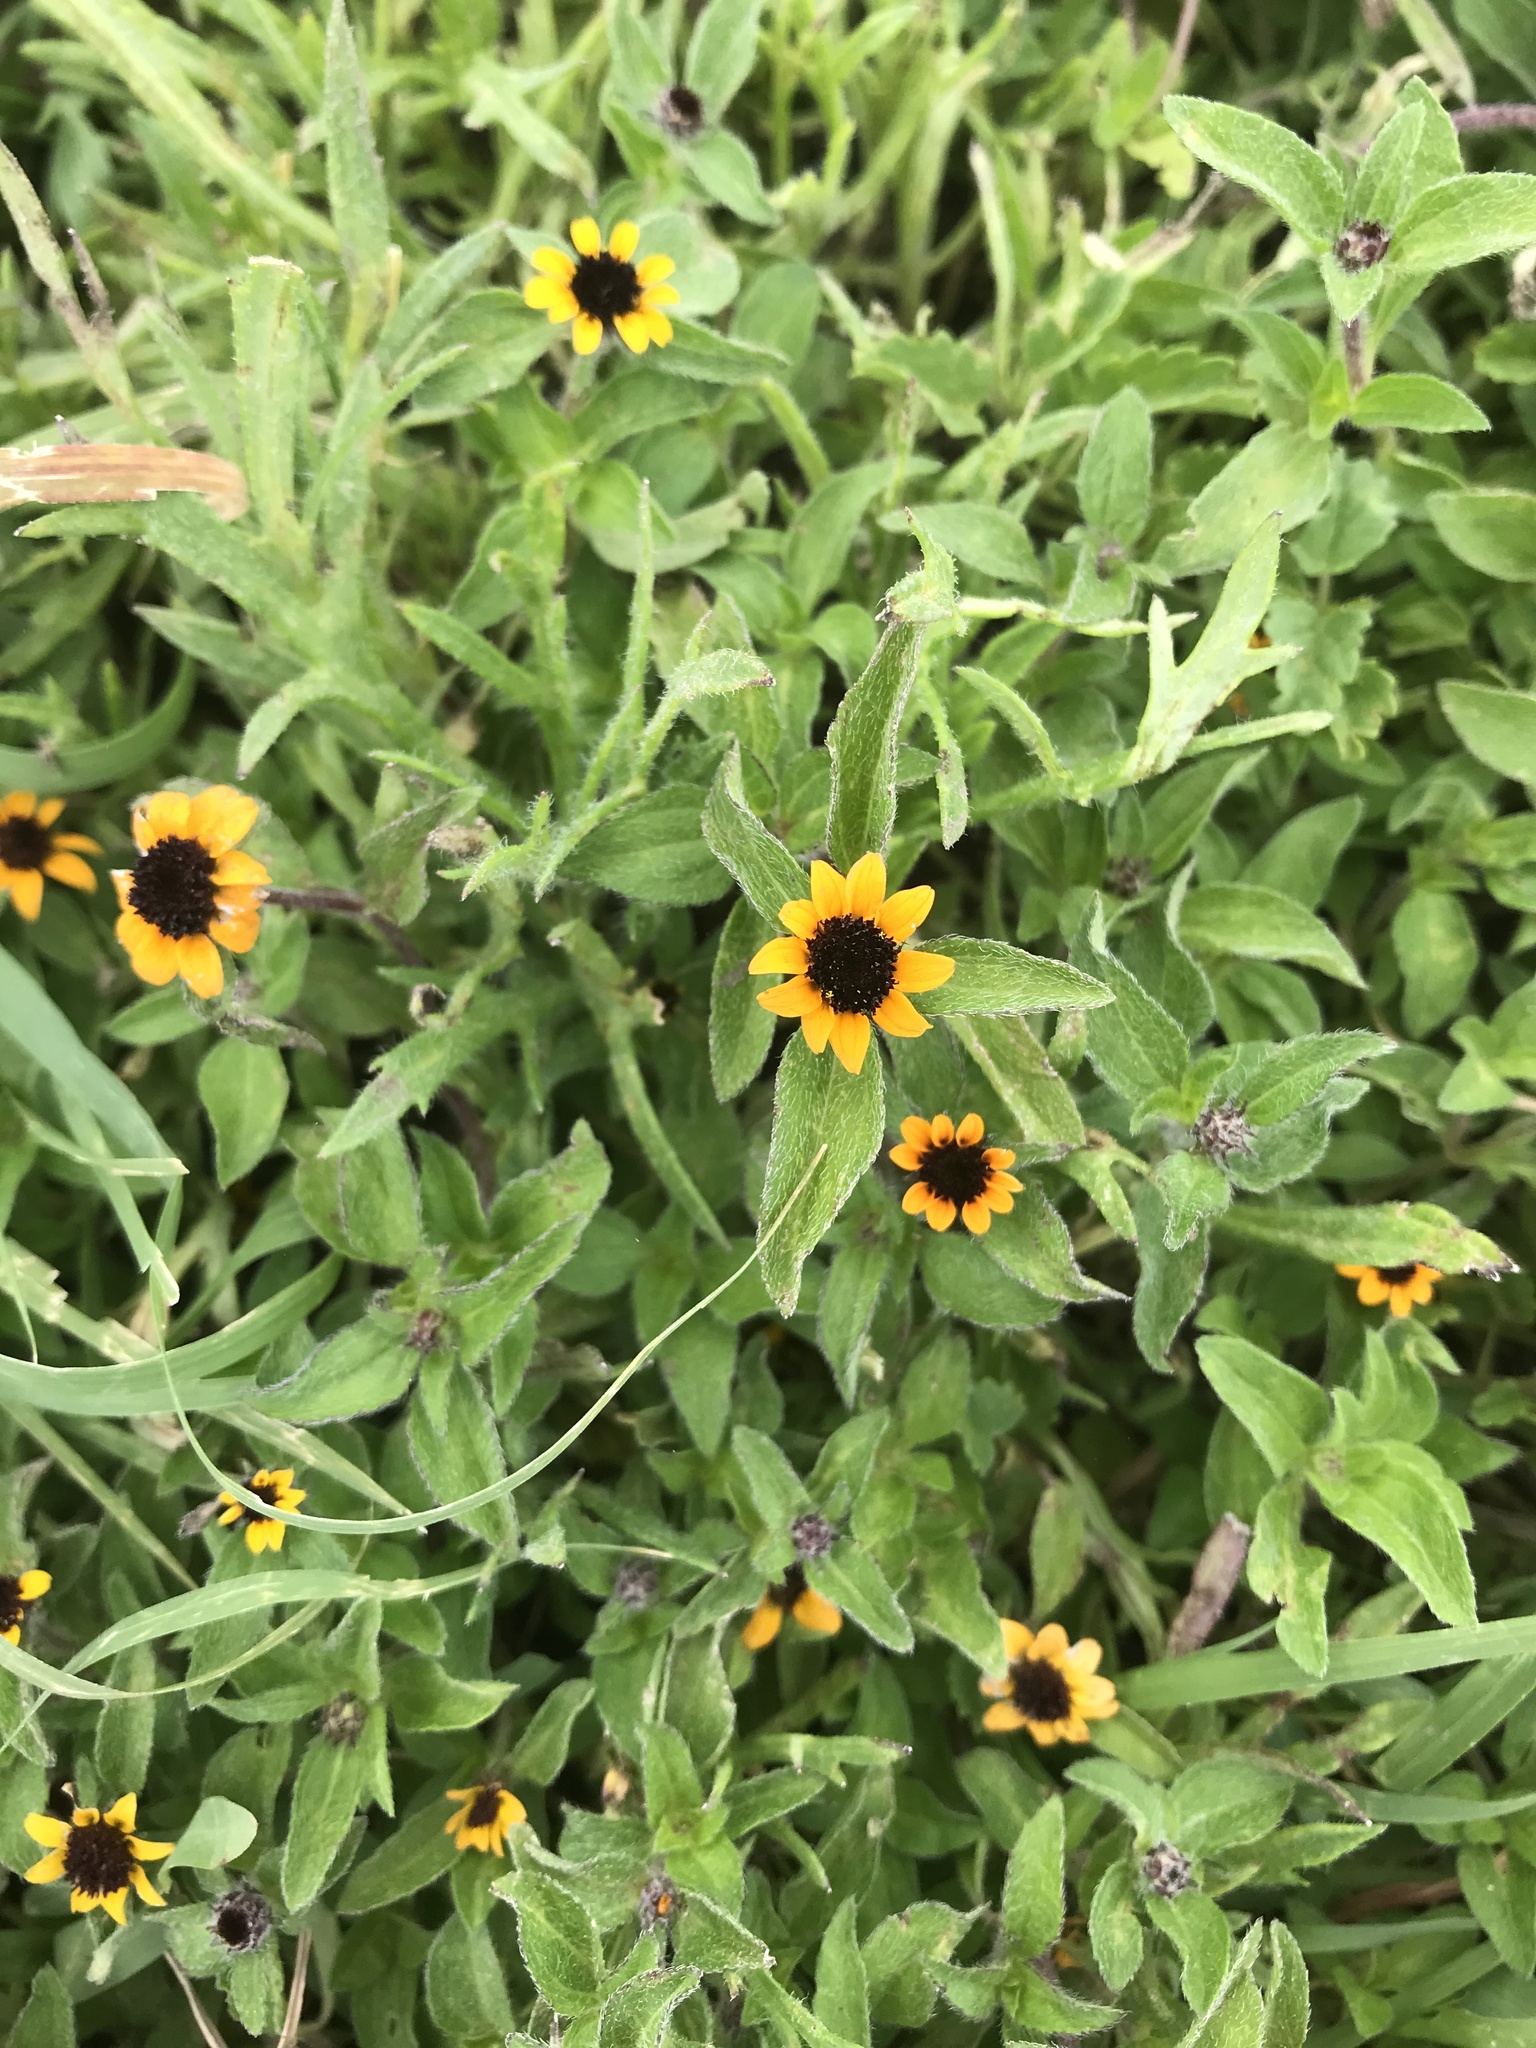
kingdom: Plantae
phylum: Tracheophyta
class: Magnoliopsida
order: Asterales
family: Asteraceae
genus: Sanvitalia
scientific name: Sanvitalia procumbens
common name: Mexican creeping zinnia
